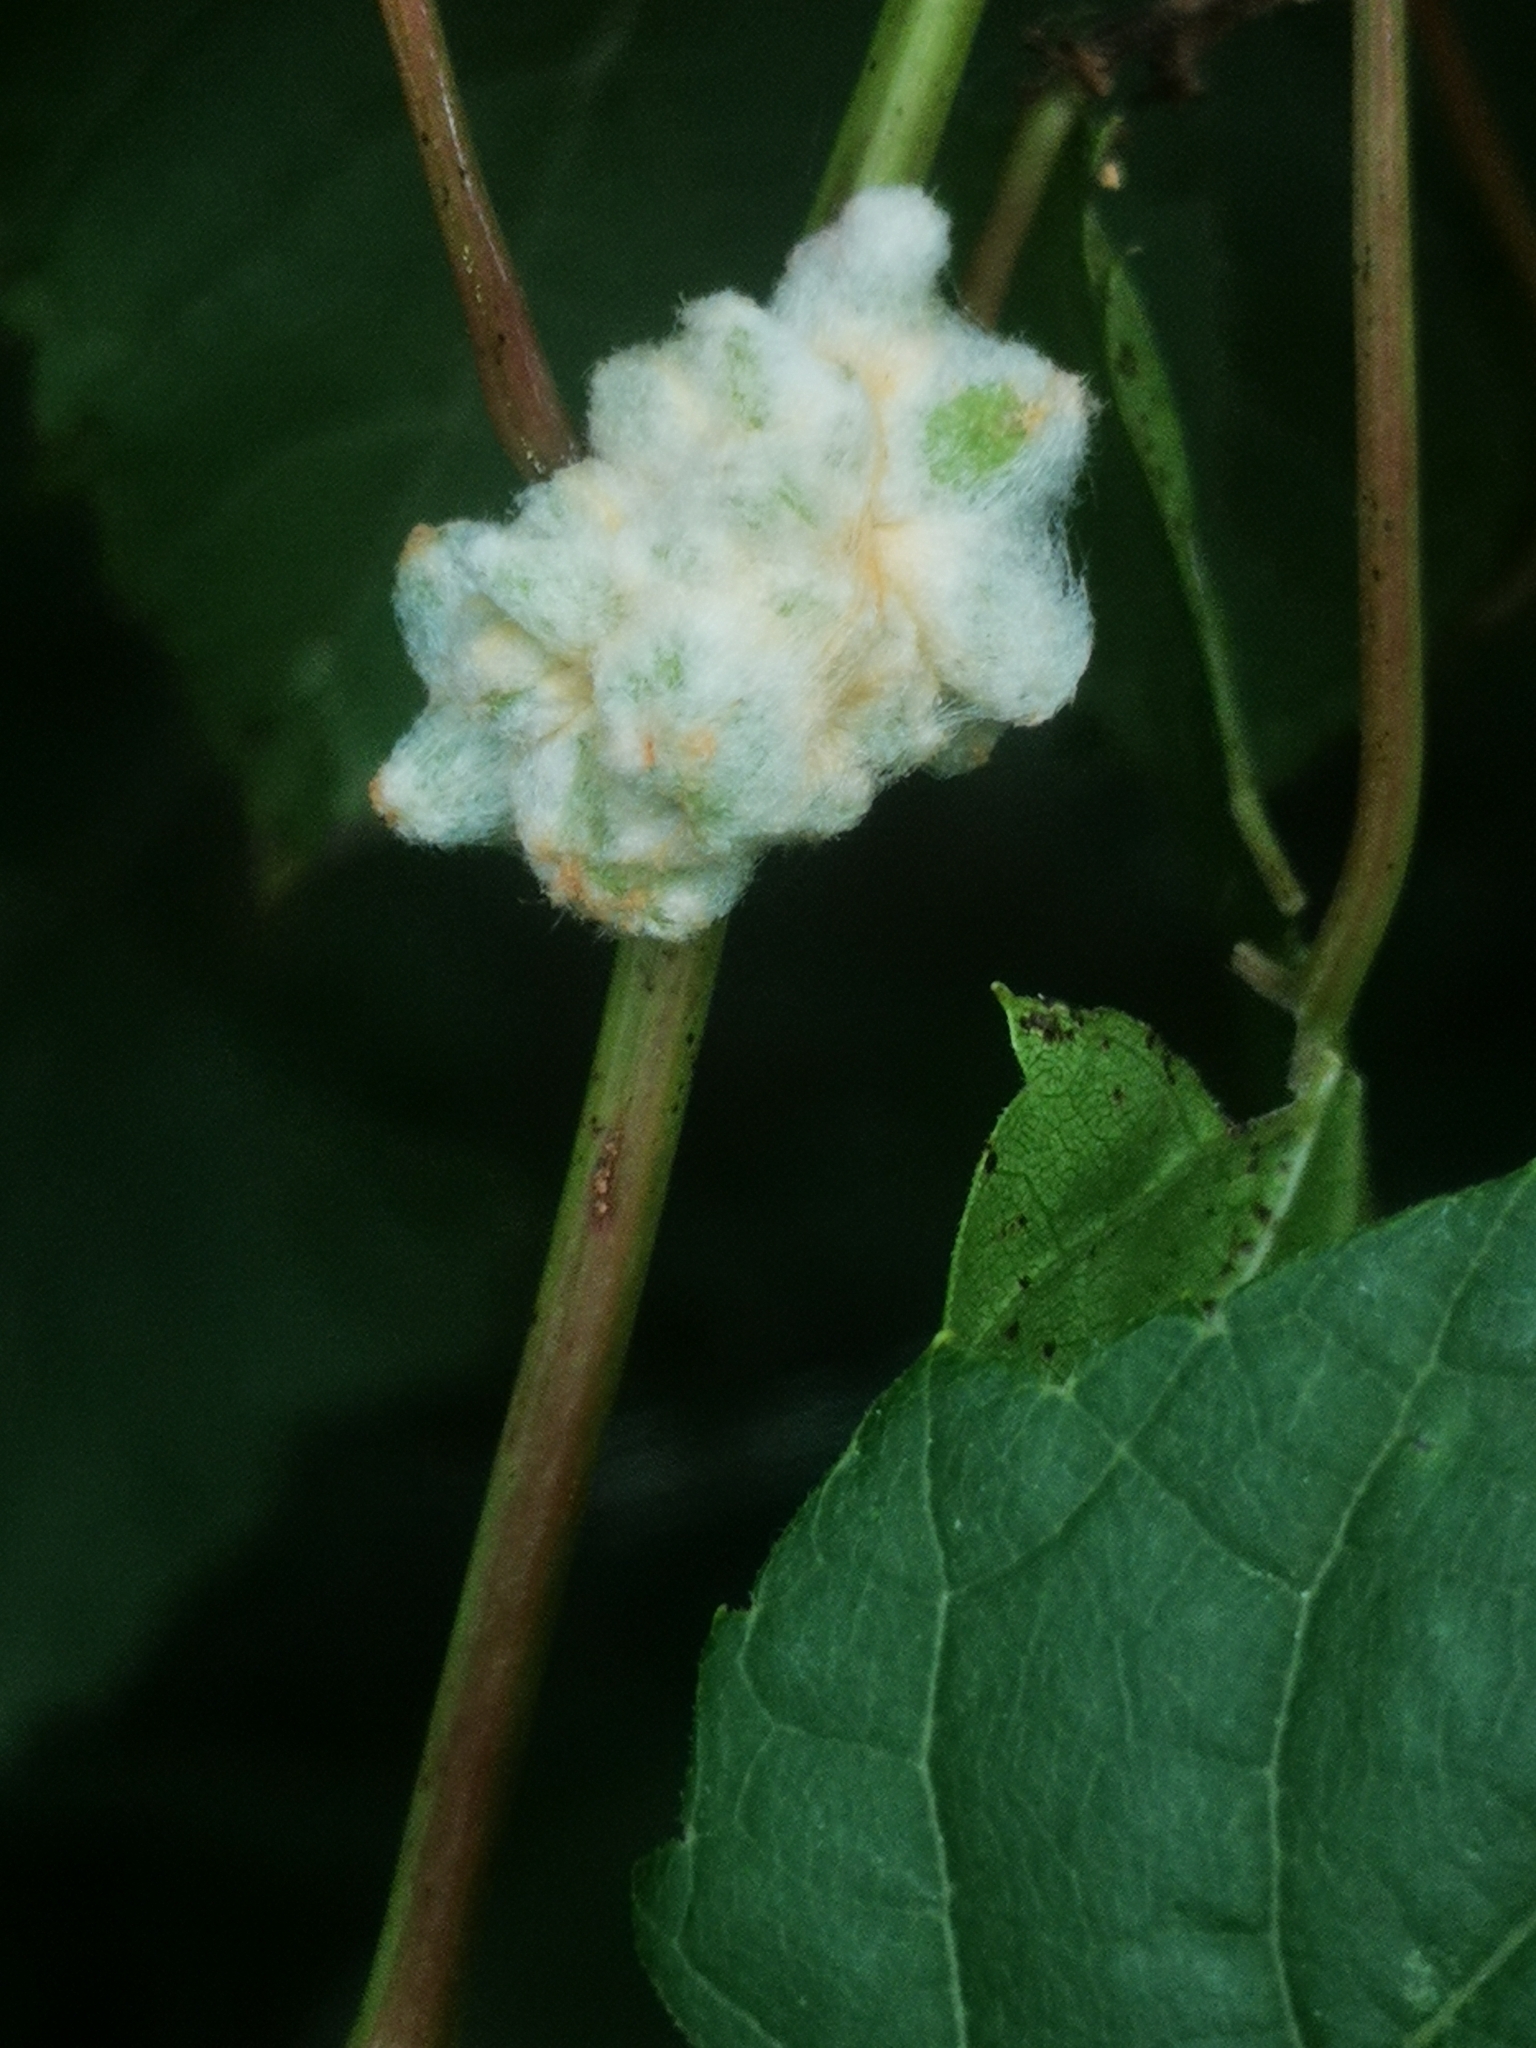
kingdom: Animalia
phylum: Arthropoda
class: Insecta
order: Diptera
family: Cecidomyiidae
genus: Ampelomyia
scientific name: Ampelomyia vitiscoryloides
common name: Grape filbert gall
